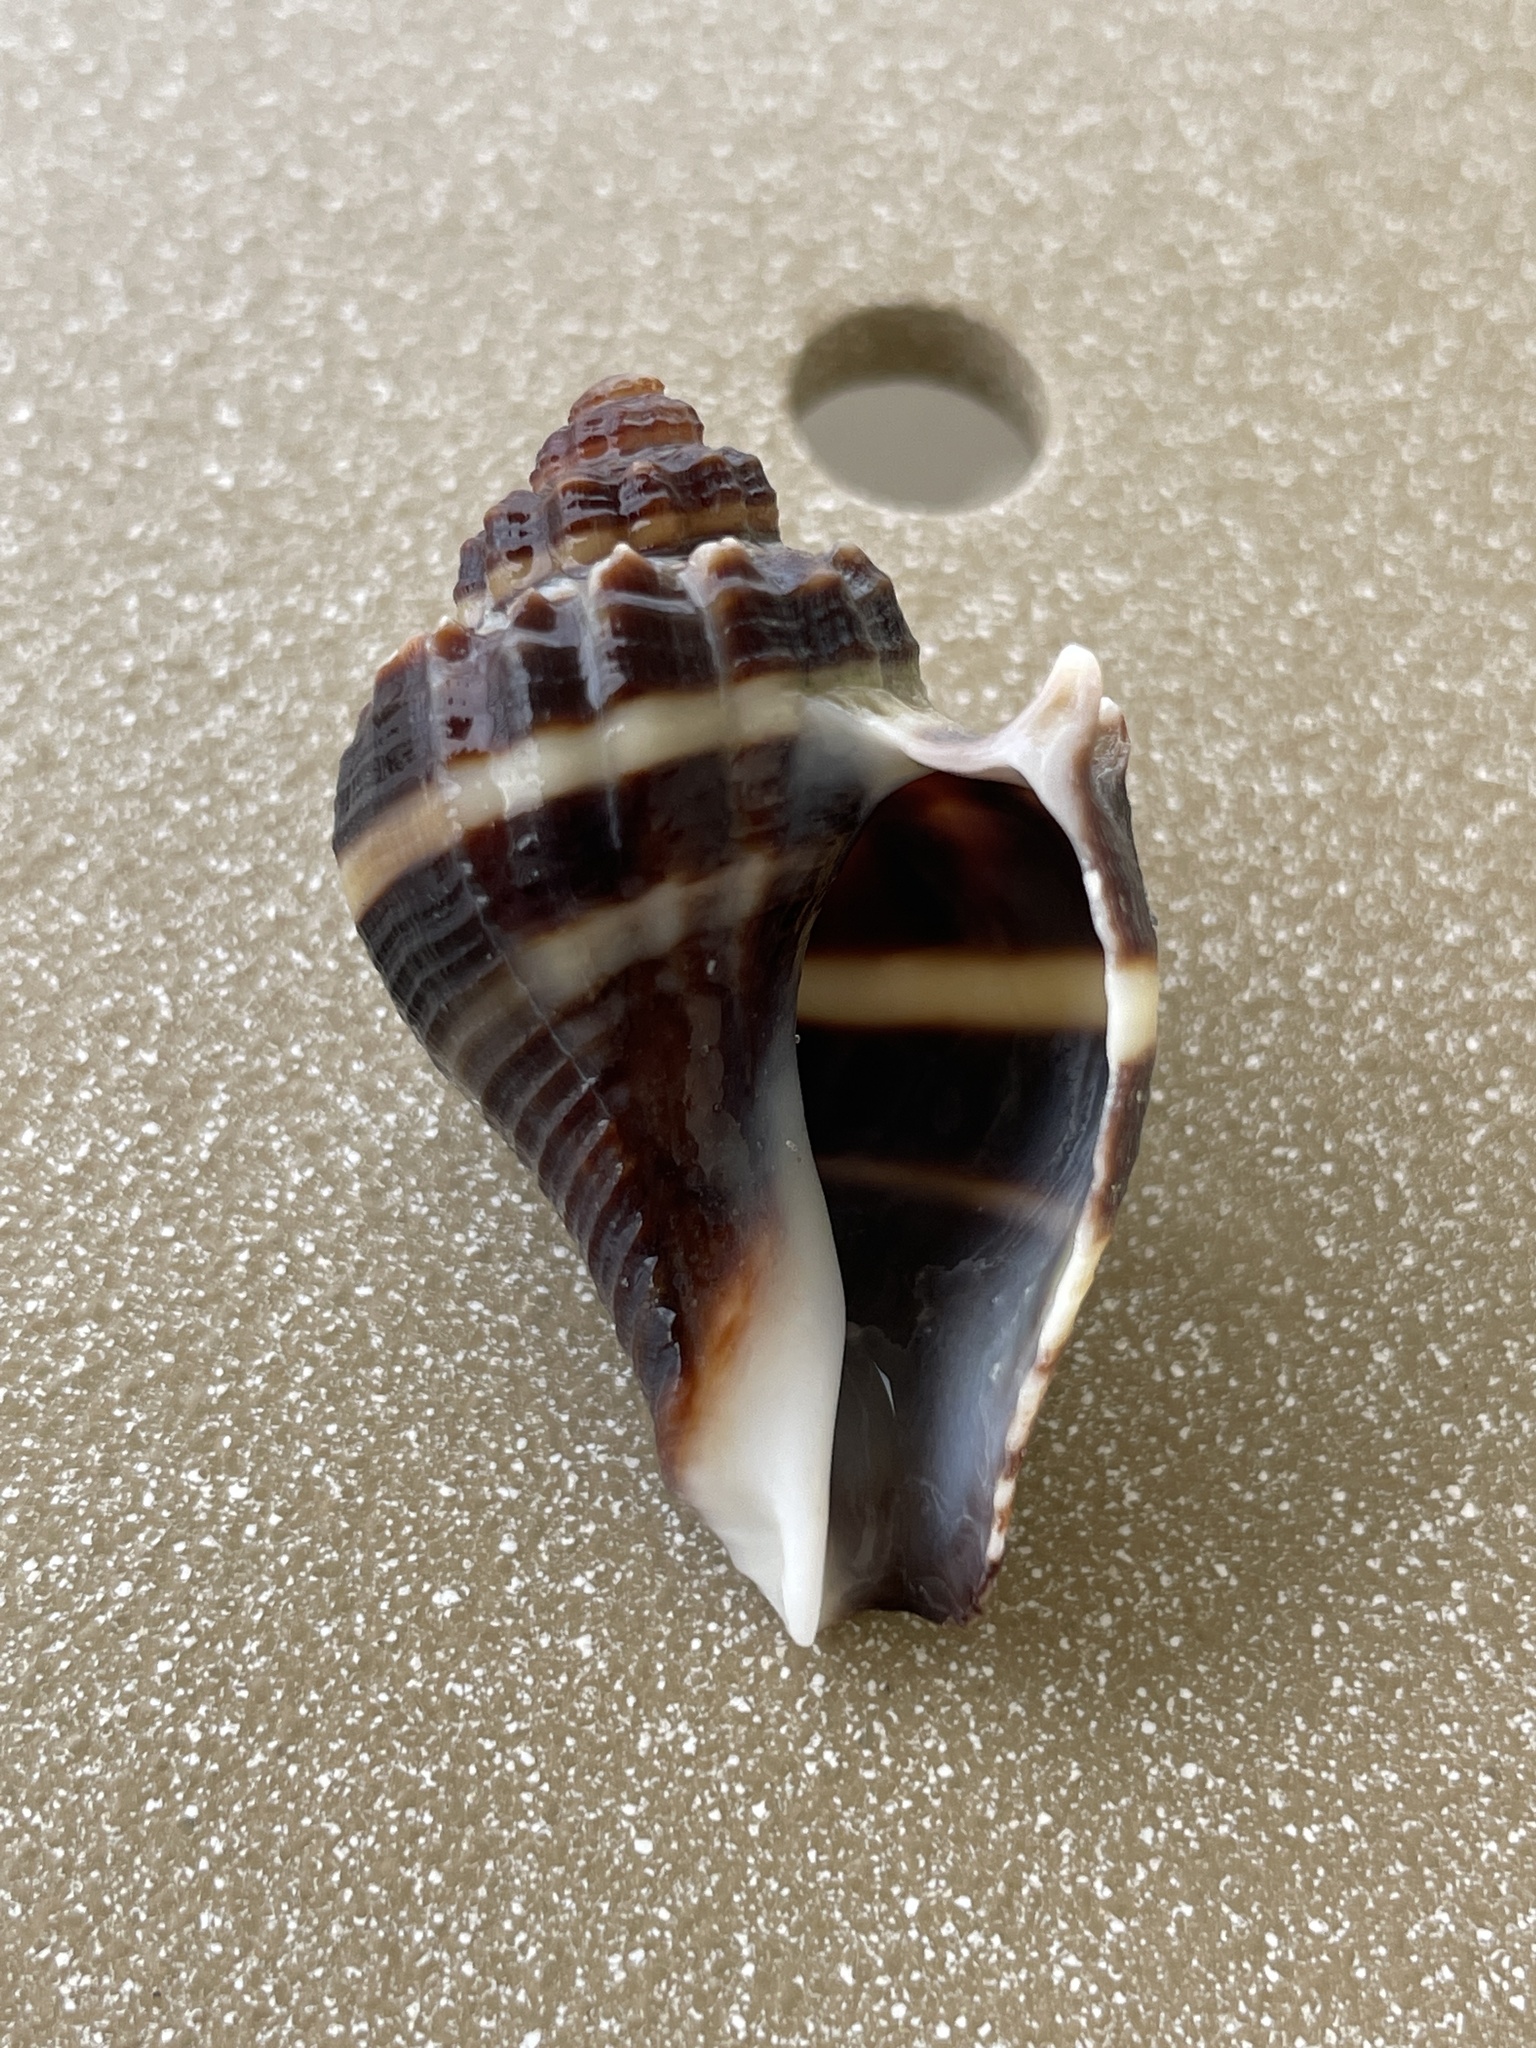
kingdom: Animalia
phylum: Mollusca
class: Gastropoda
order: Neogastropoda
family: Melongenidae
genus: Melongena
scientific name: Melongena corona
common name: American crown conch
